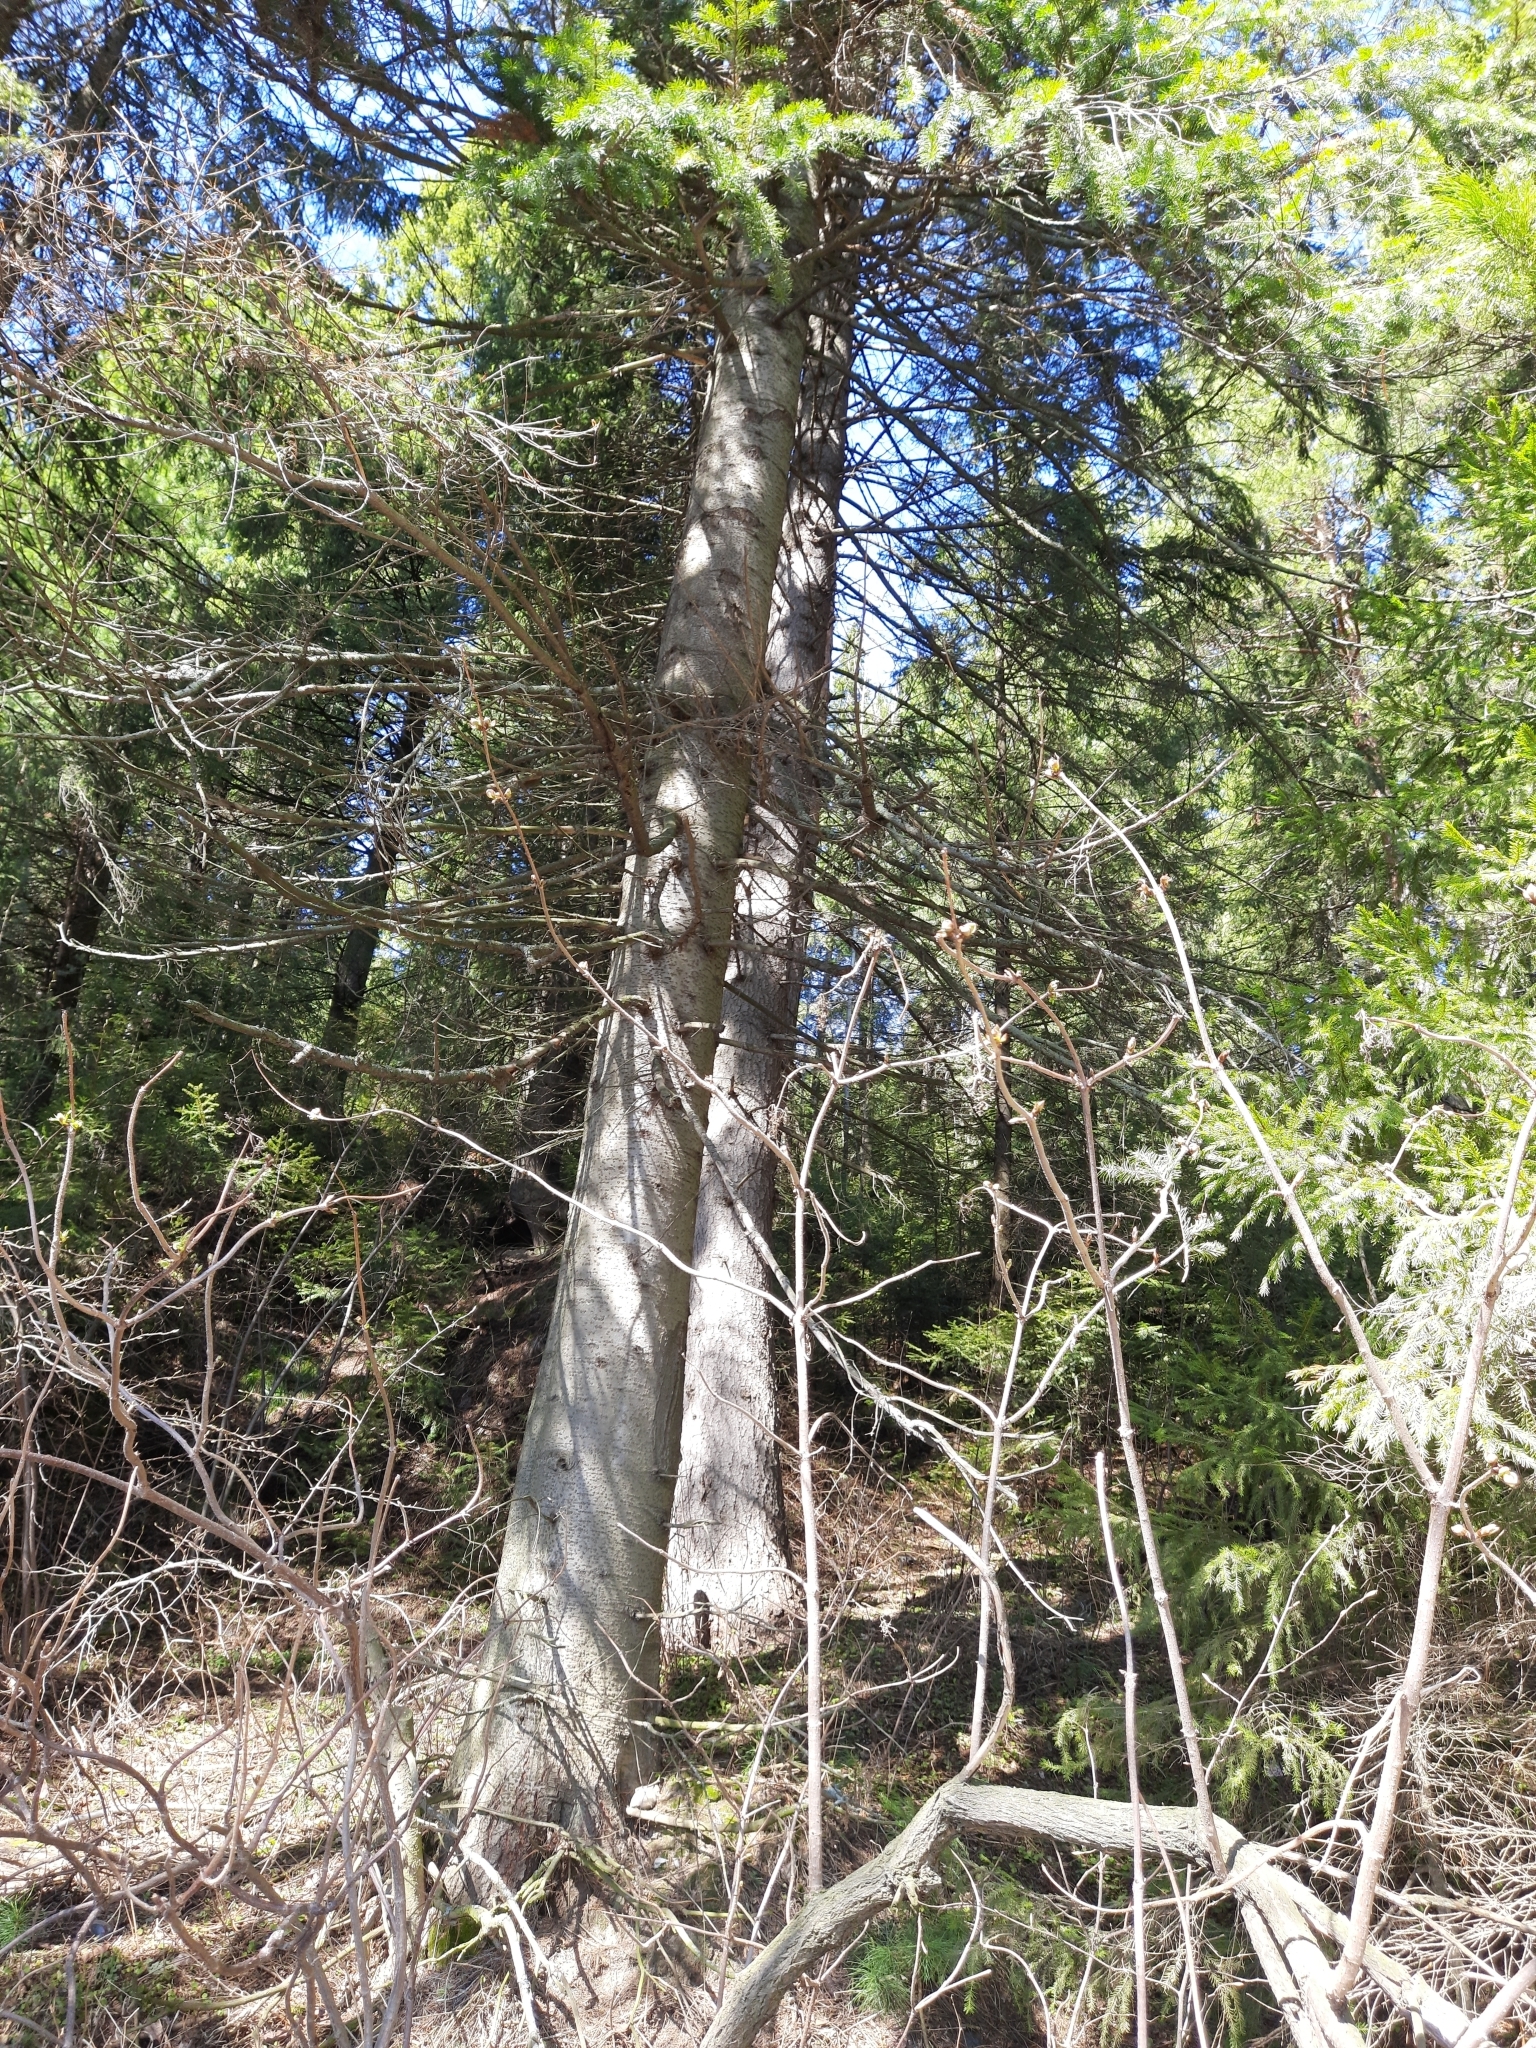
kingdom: Plantae
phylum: Tracheophyta
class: Pinopsida
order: Pinales
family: Pinaceae
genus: Abies
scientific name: Abies sibirica
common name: Siberian fir
